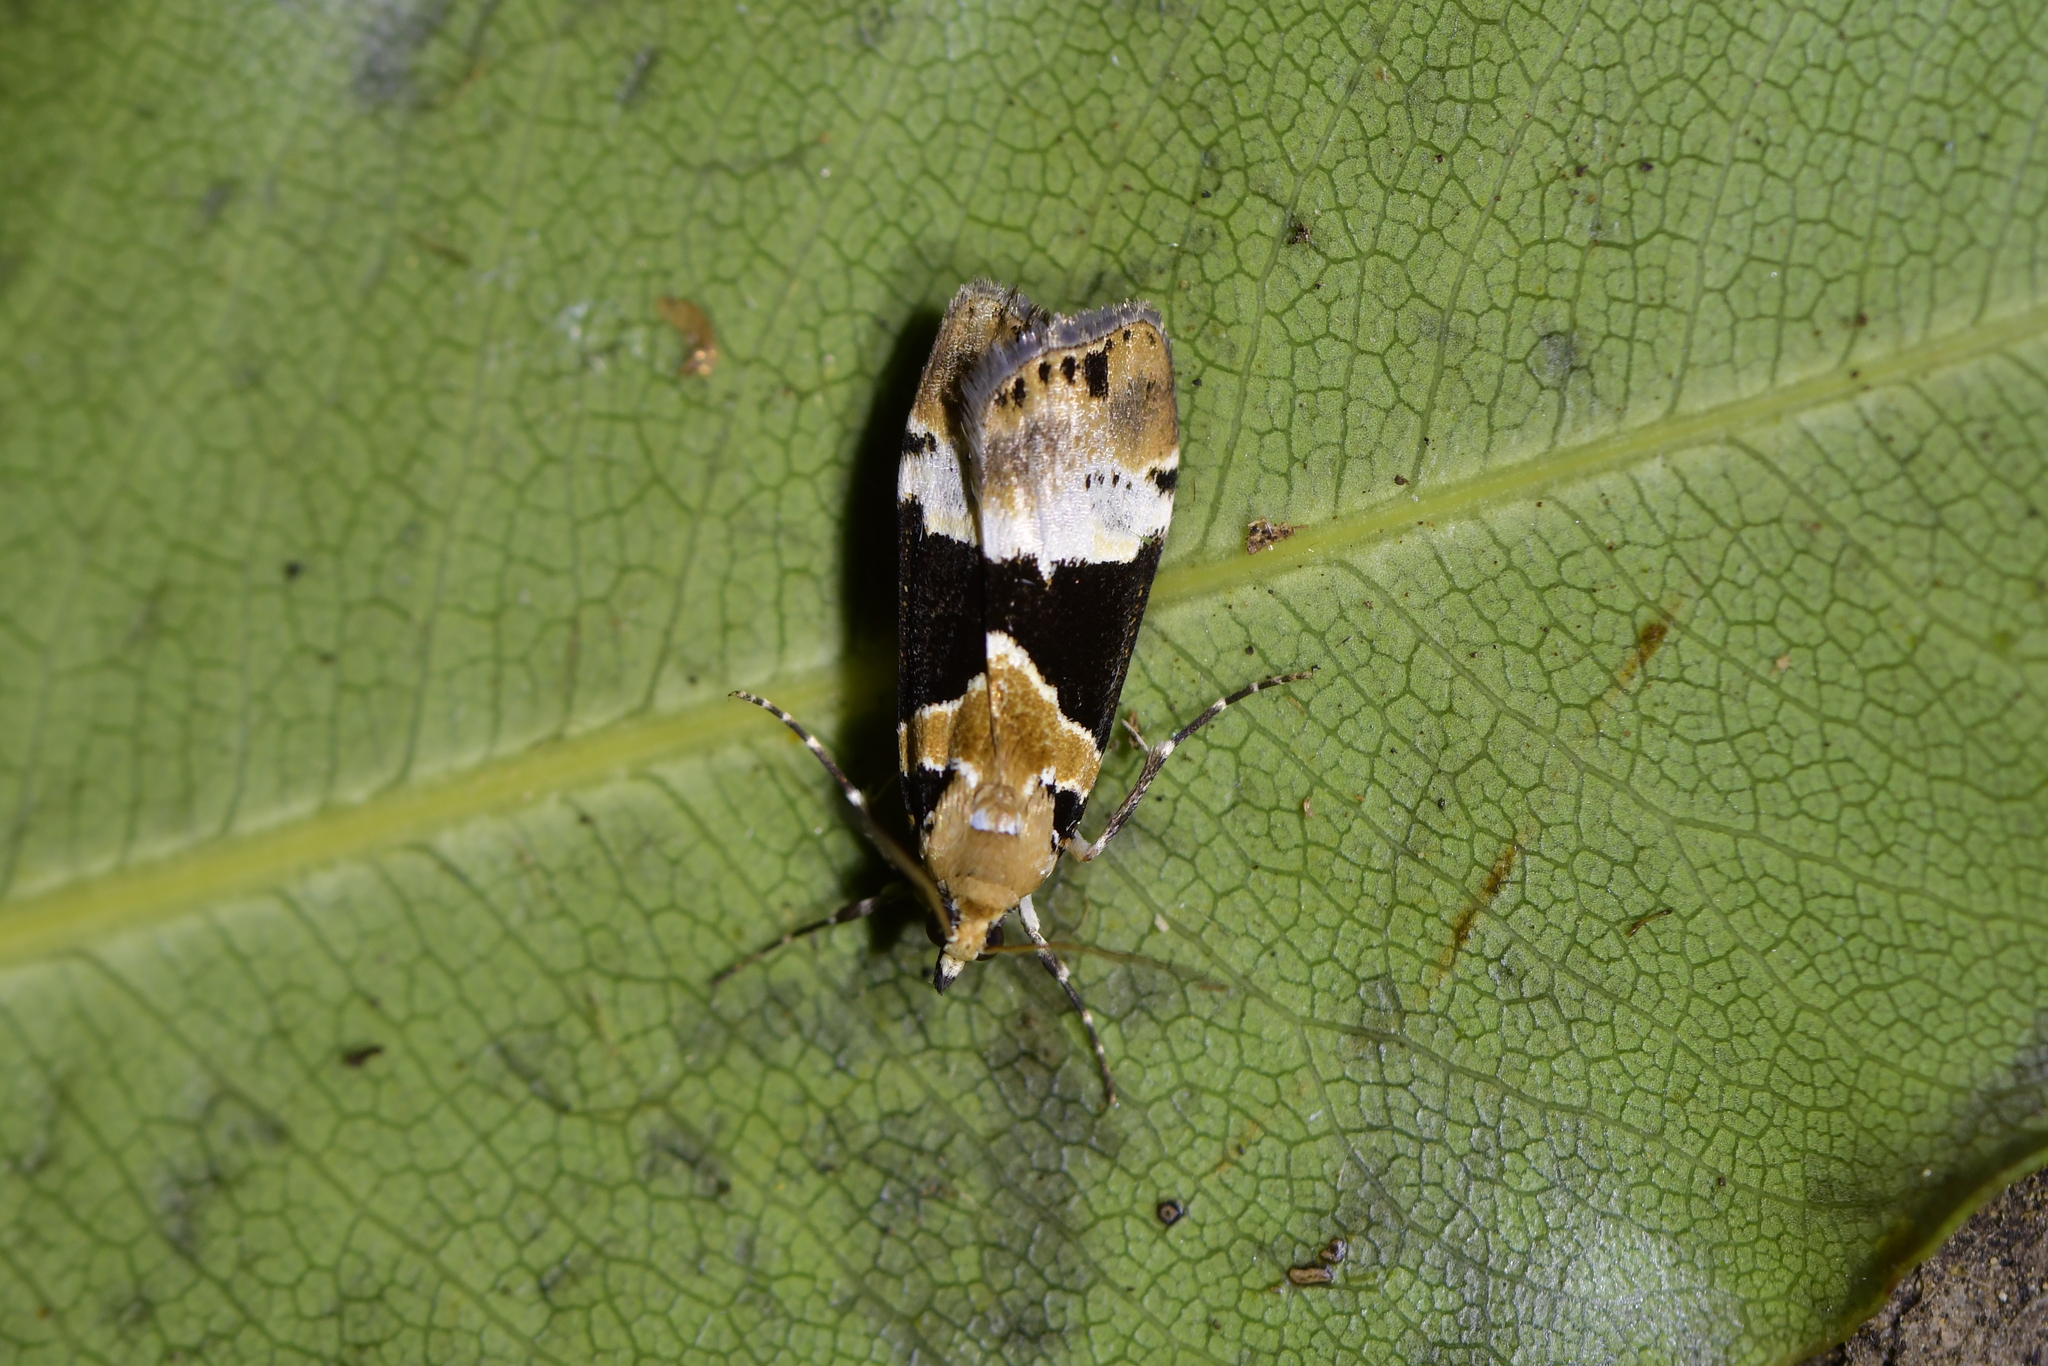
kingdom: Animalia
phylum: Arthropoda
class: Insecta
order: Lepidoptera
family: Crambidae
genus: Eudonia
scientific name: Eudonia aspidota
